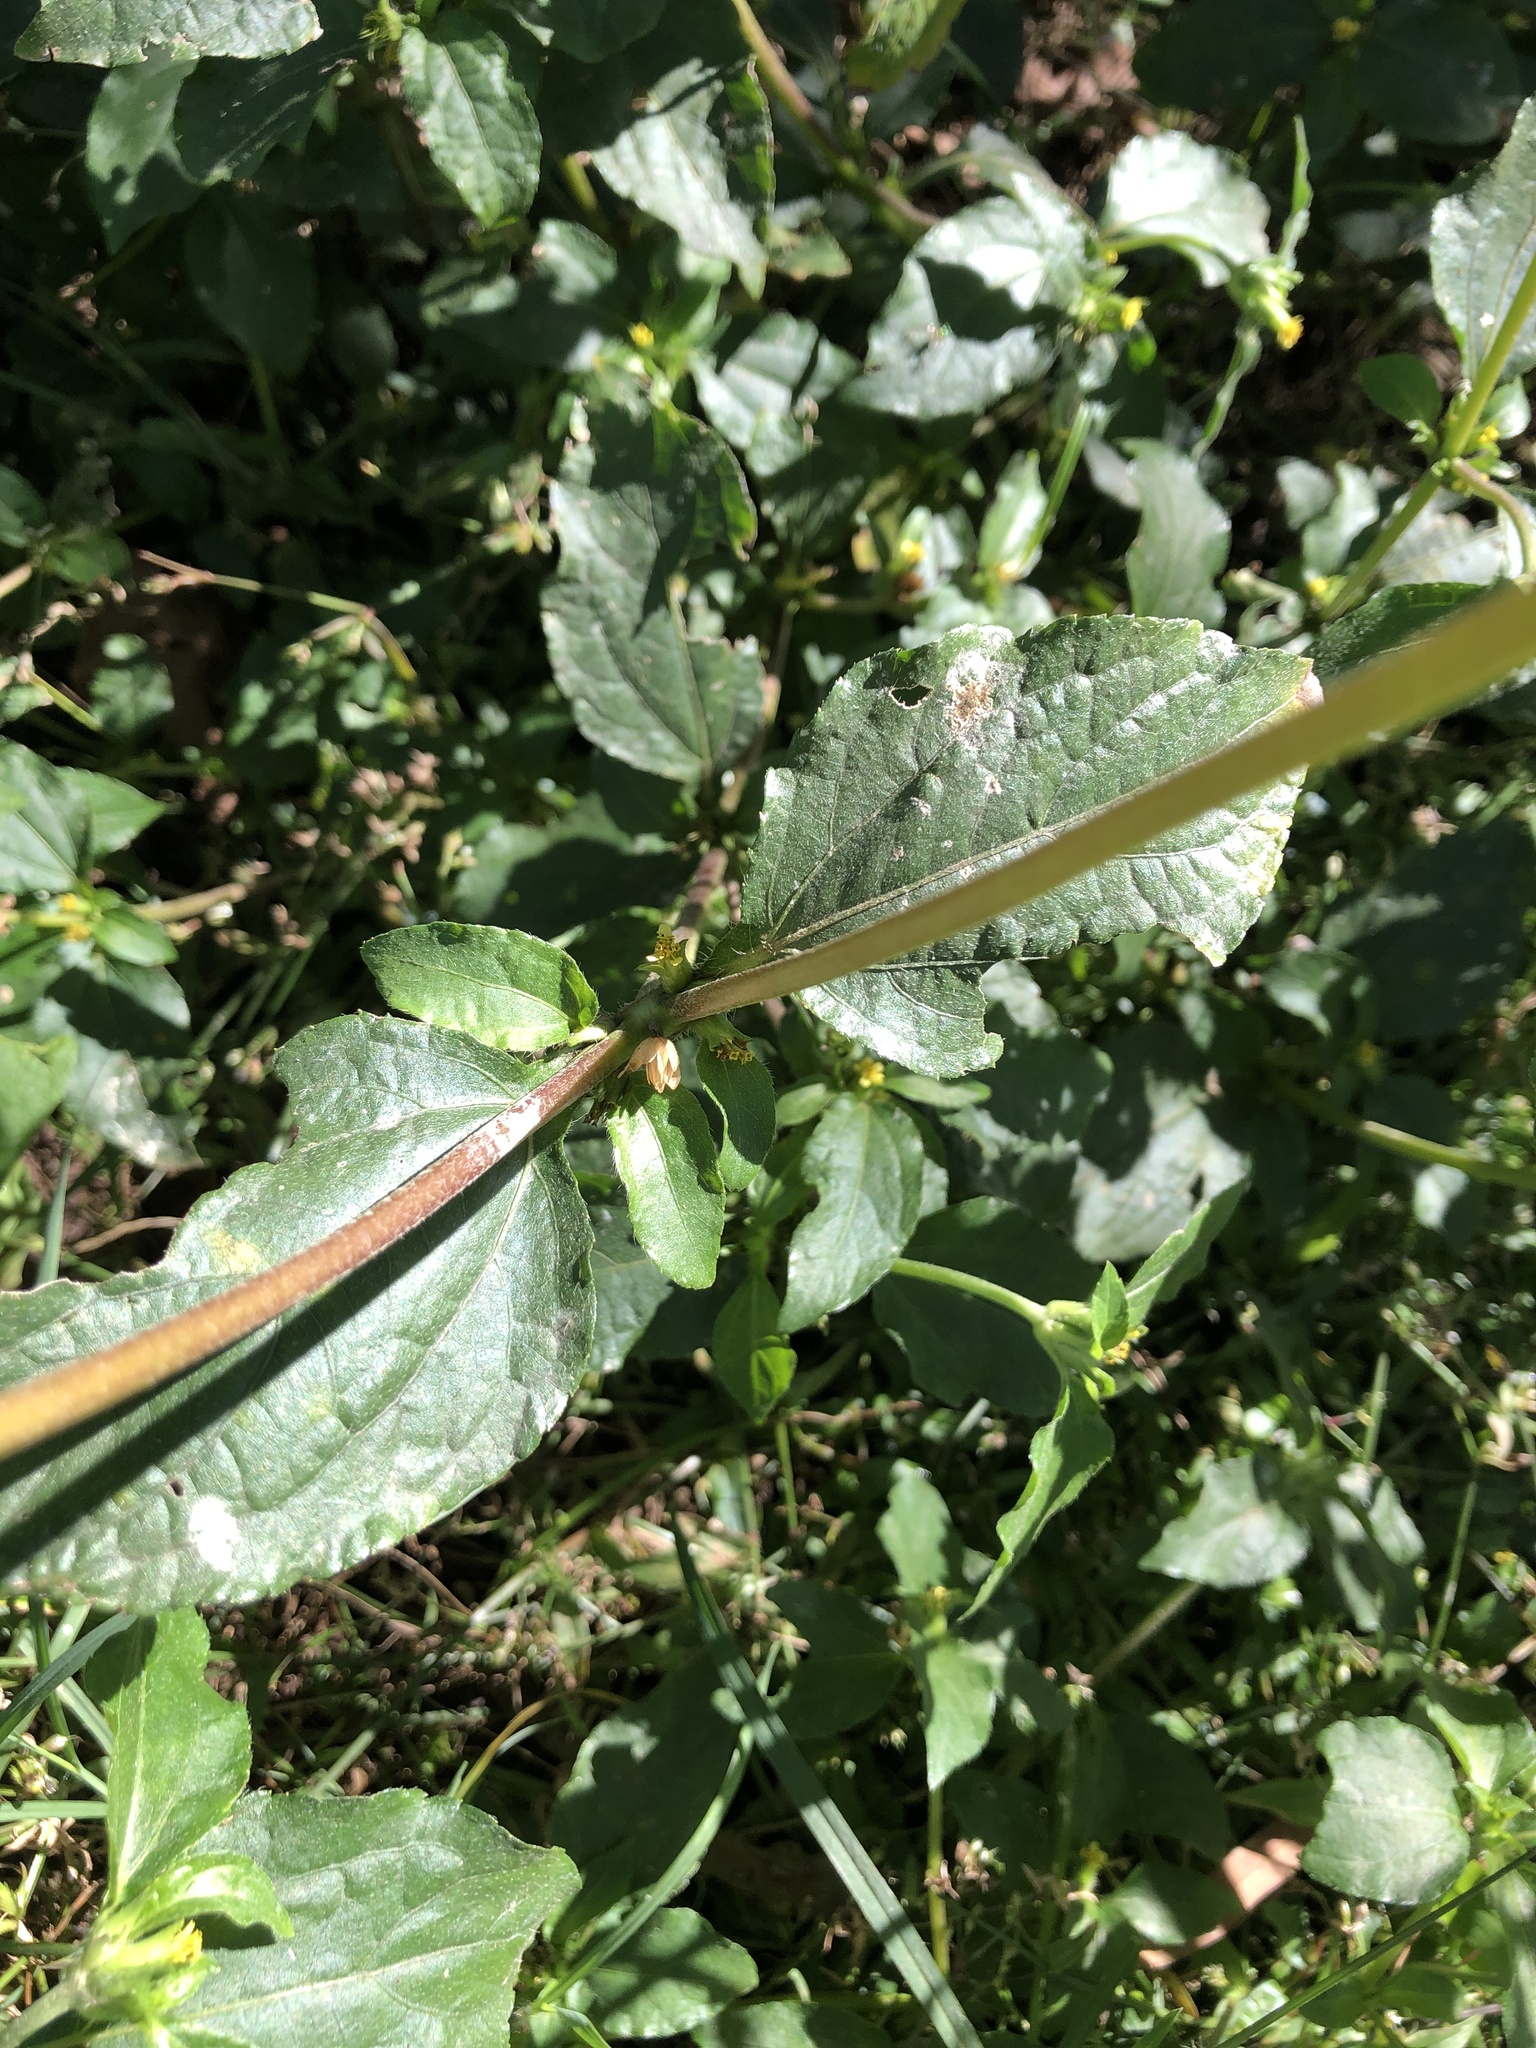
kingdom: Plantae
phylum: Tracheophyta
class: Magnoliopsida
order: Asterales
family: Asteraceae
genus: Synedrella
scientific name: Synedrella nodiflora
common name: Nodeweed
